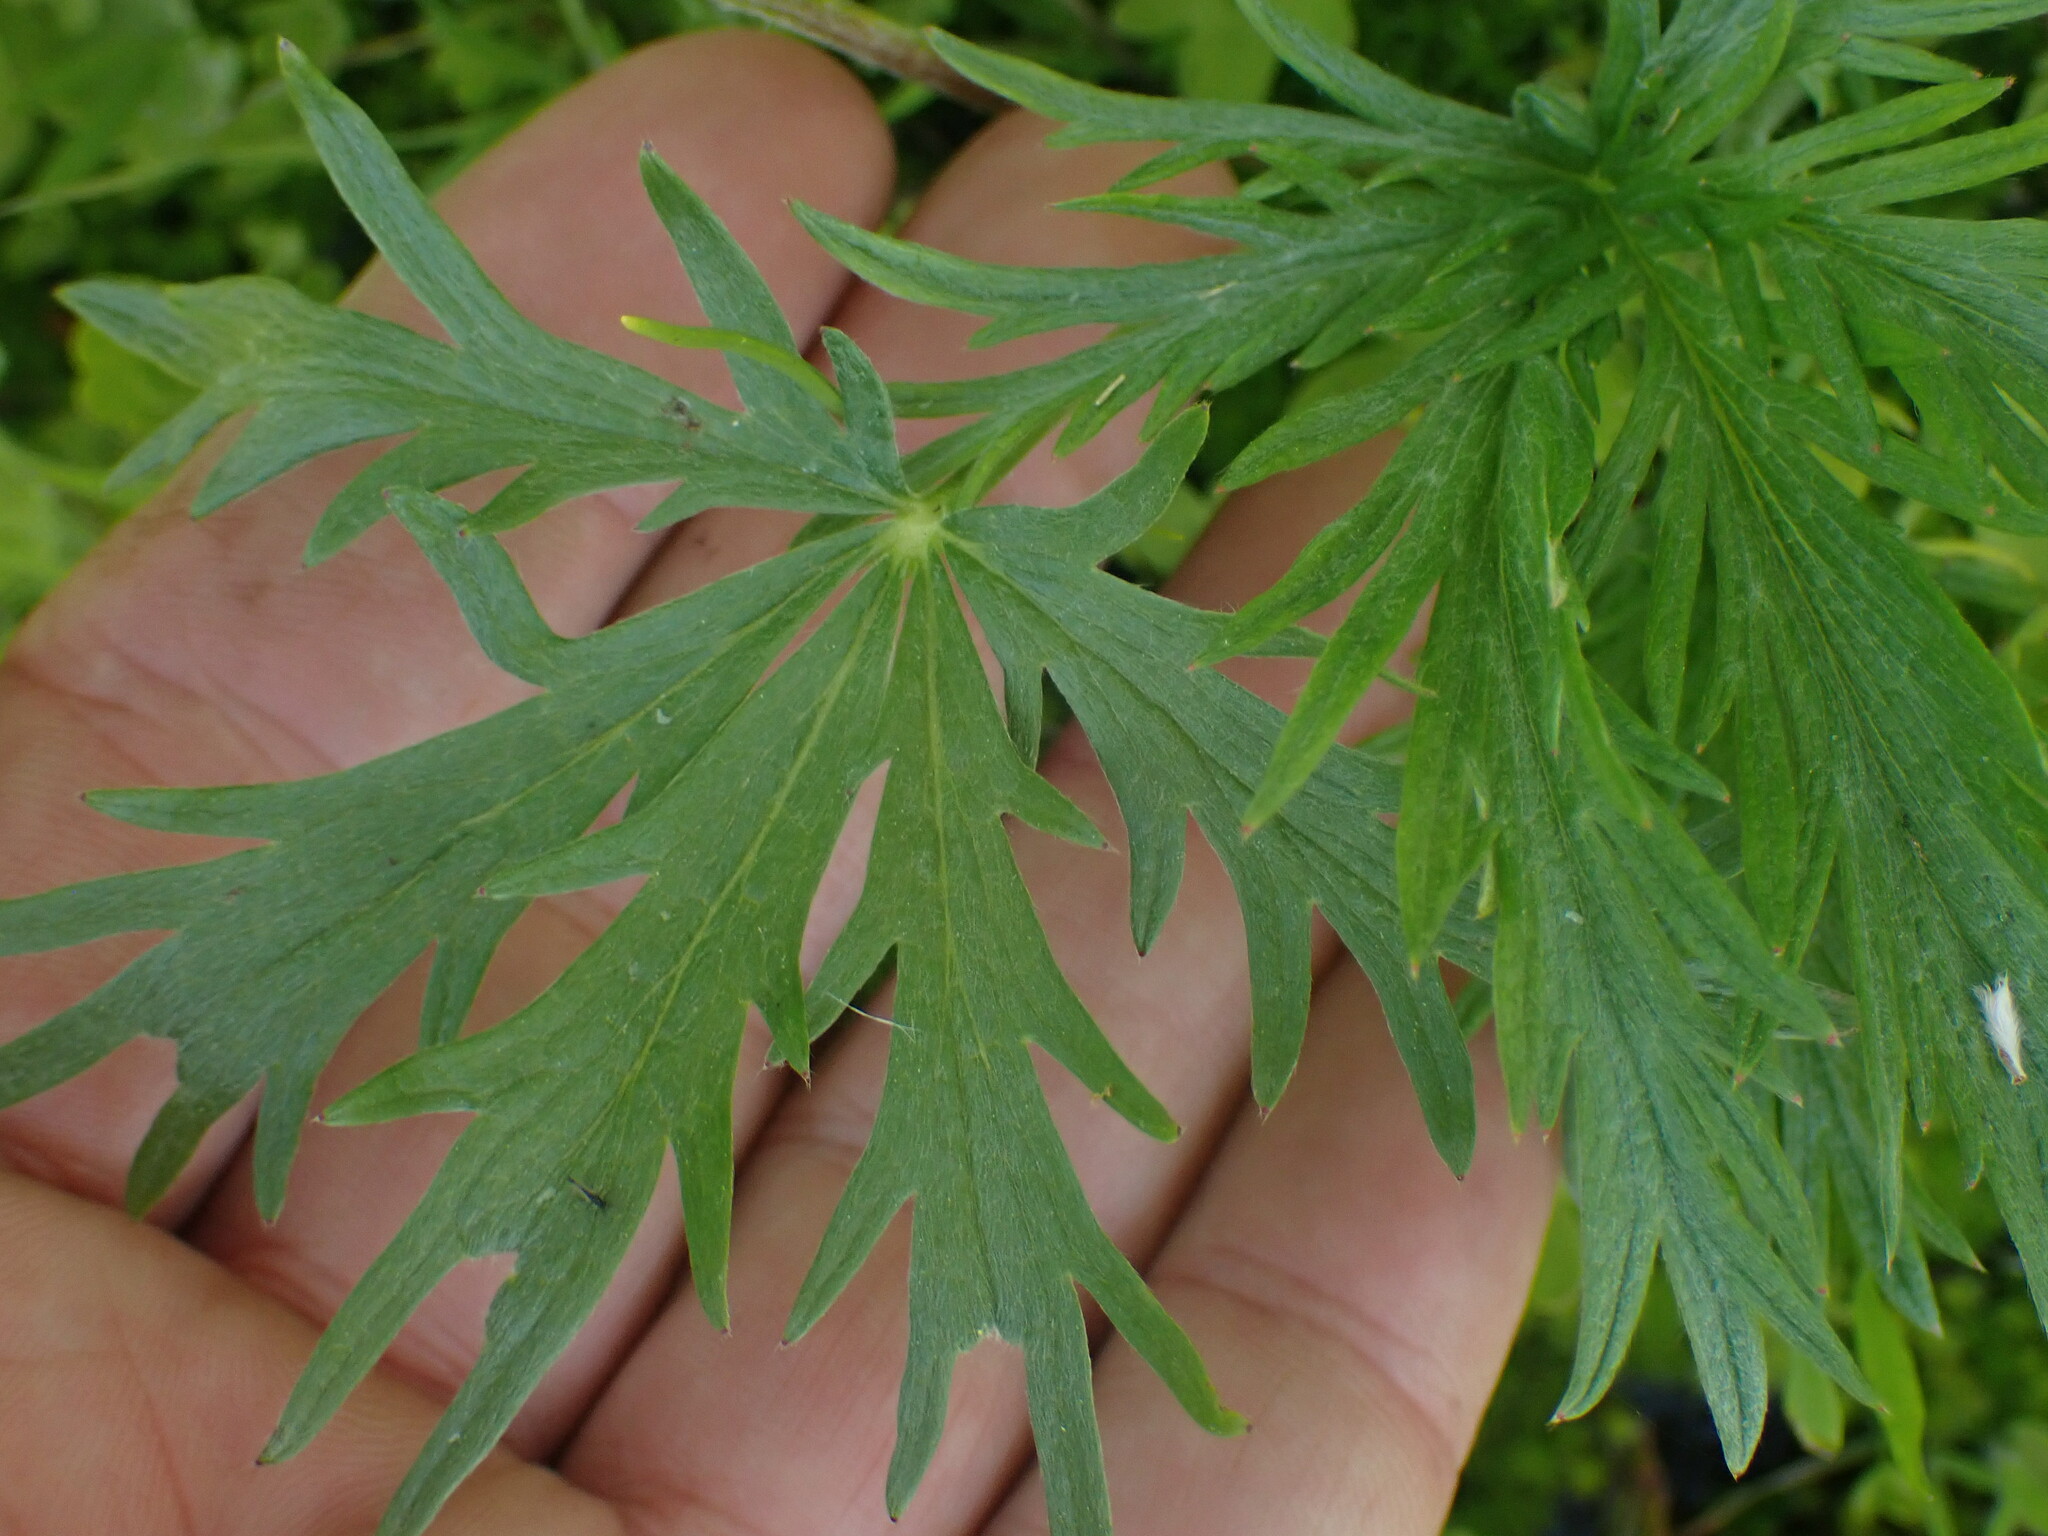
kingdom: Plantae
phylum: Tracheophyta
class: Magnoliopsida
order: Rosales
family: Rosaceae
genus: Potentilla
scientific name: Potentilla gracilis
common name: Graceful cinquefoil
